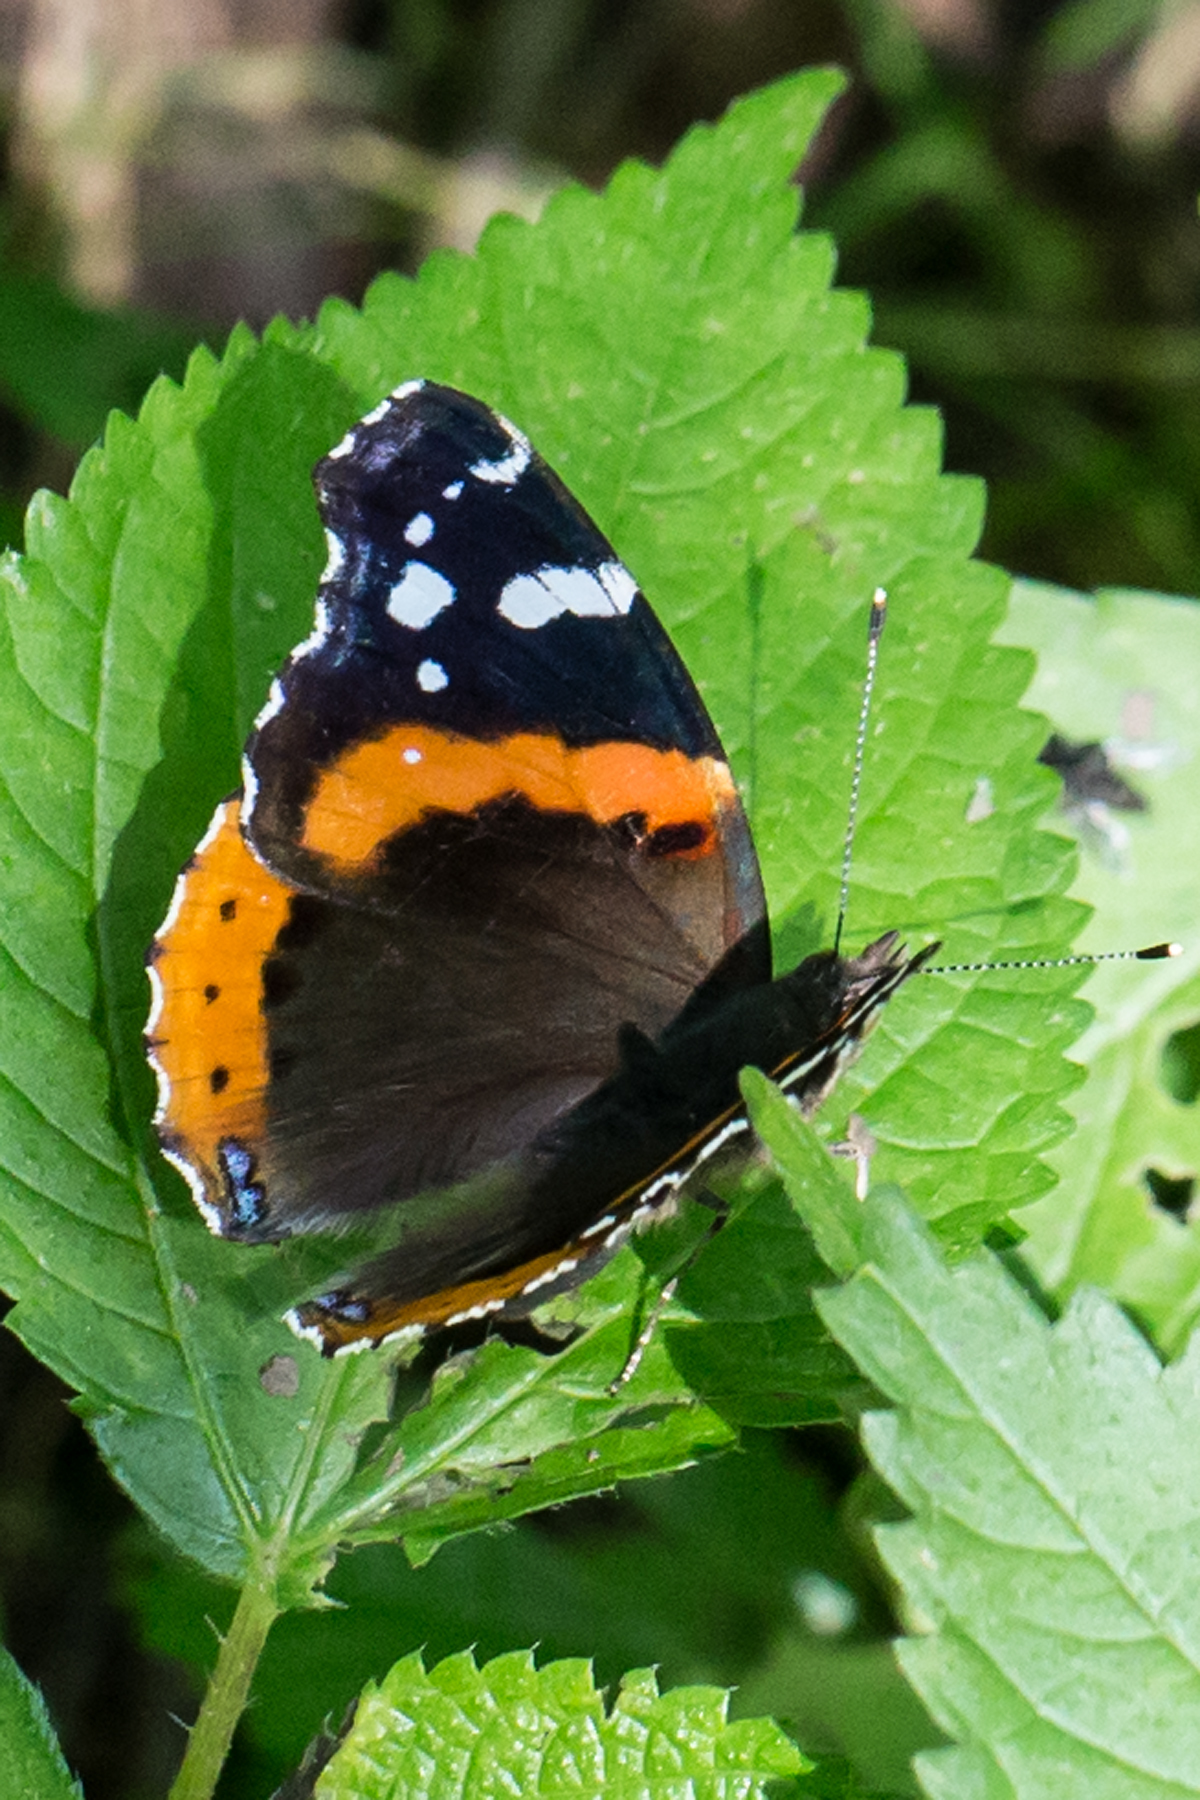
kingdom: Animalia
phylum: Arthropoda
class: Insecta
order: Lepidoptera
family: Nymphalidae
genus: Vanessa
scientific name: Vanessa atalanta
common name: Red admiral
